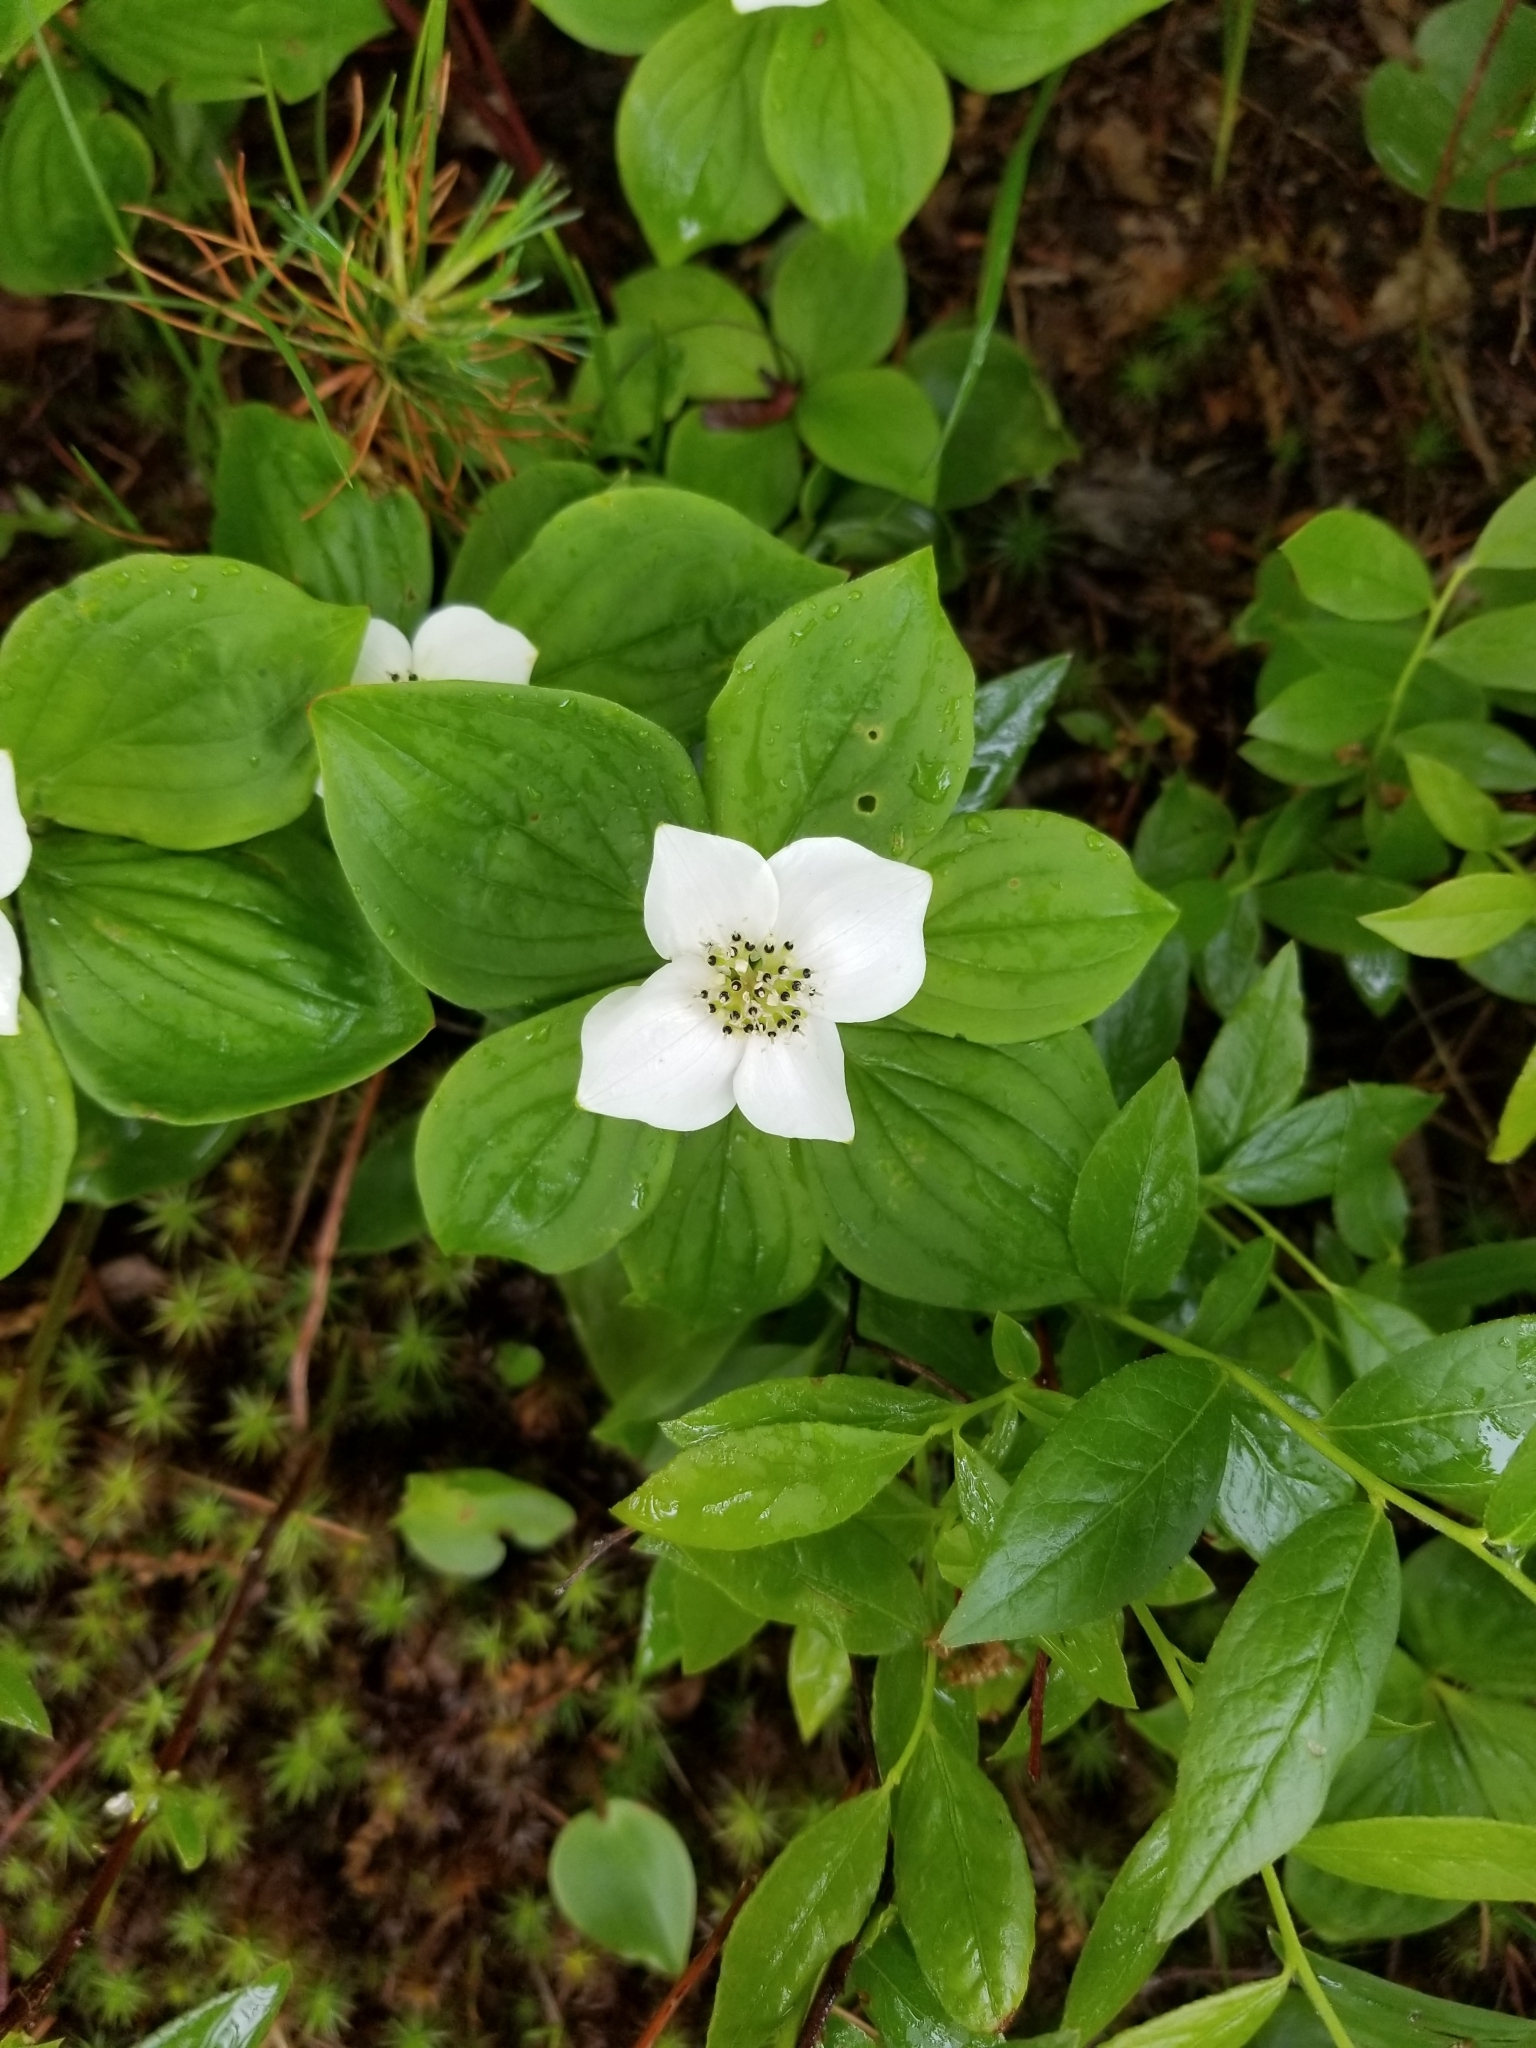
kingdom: Plantae
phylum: Tracheophyta
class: Magnoliopsida
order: Cornales
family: Cornaceae
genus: Cornus
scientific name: Cornus canadensis
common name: Creeping dogwood
